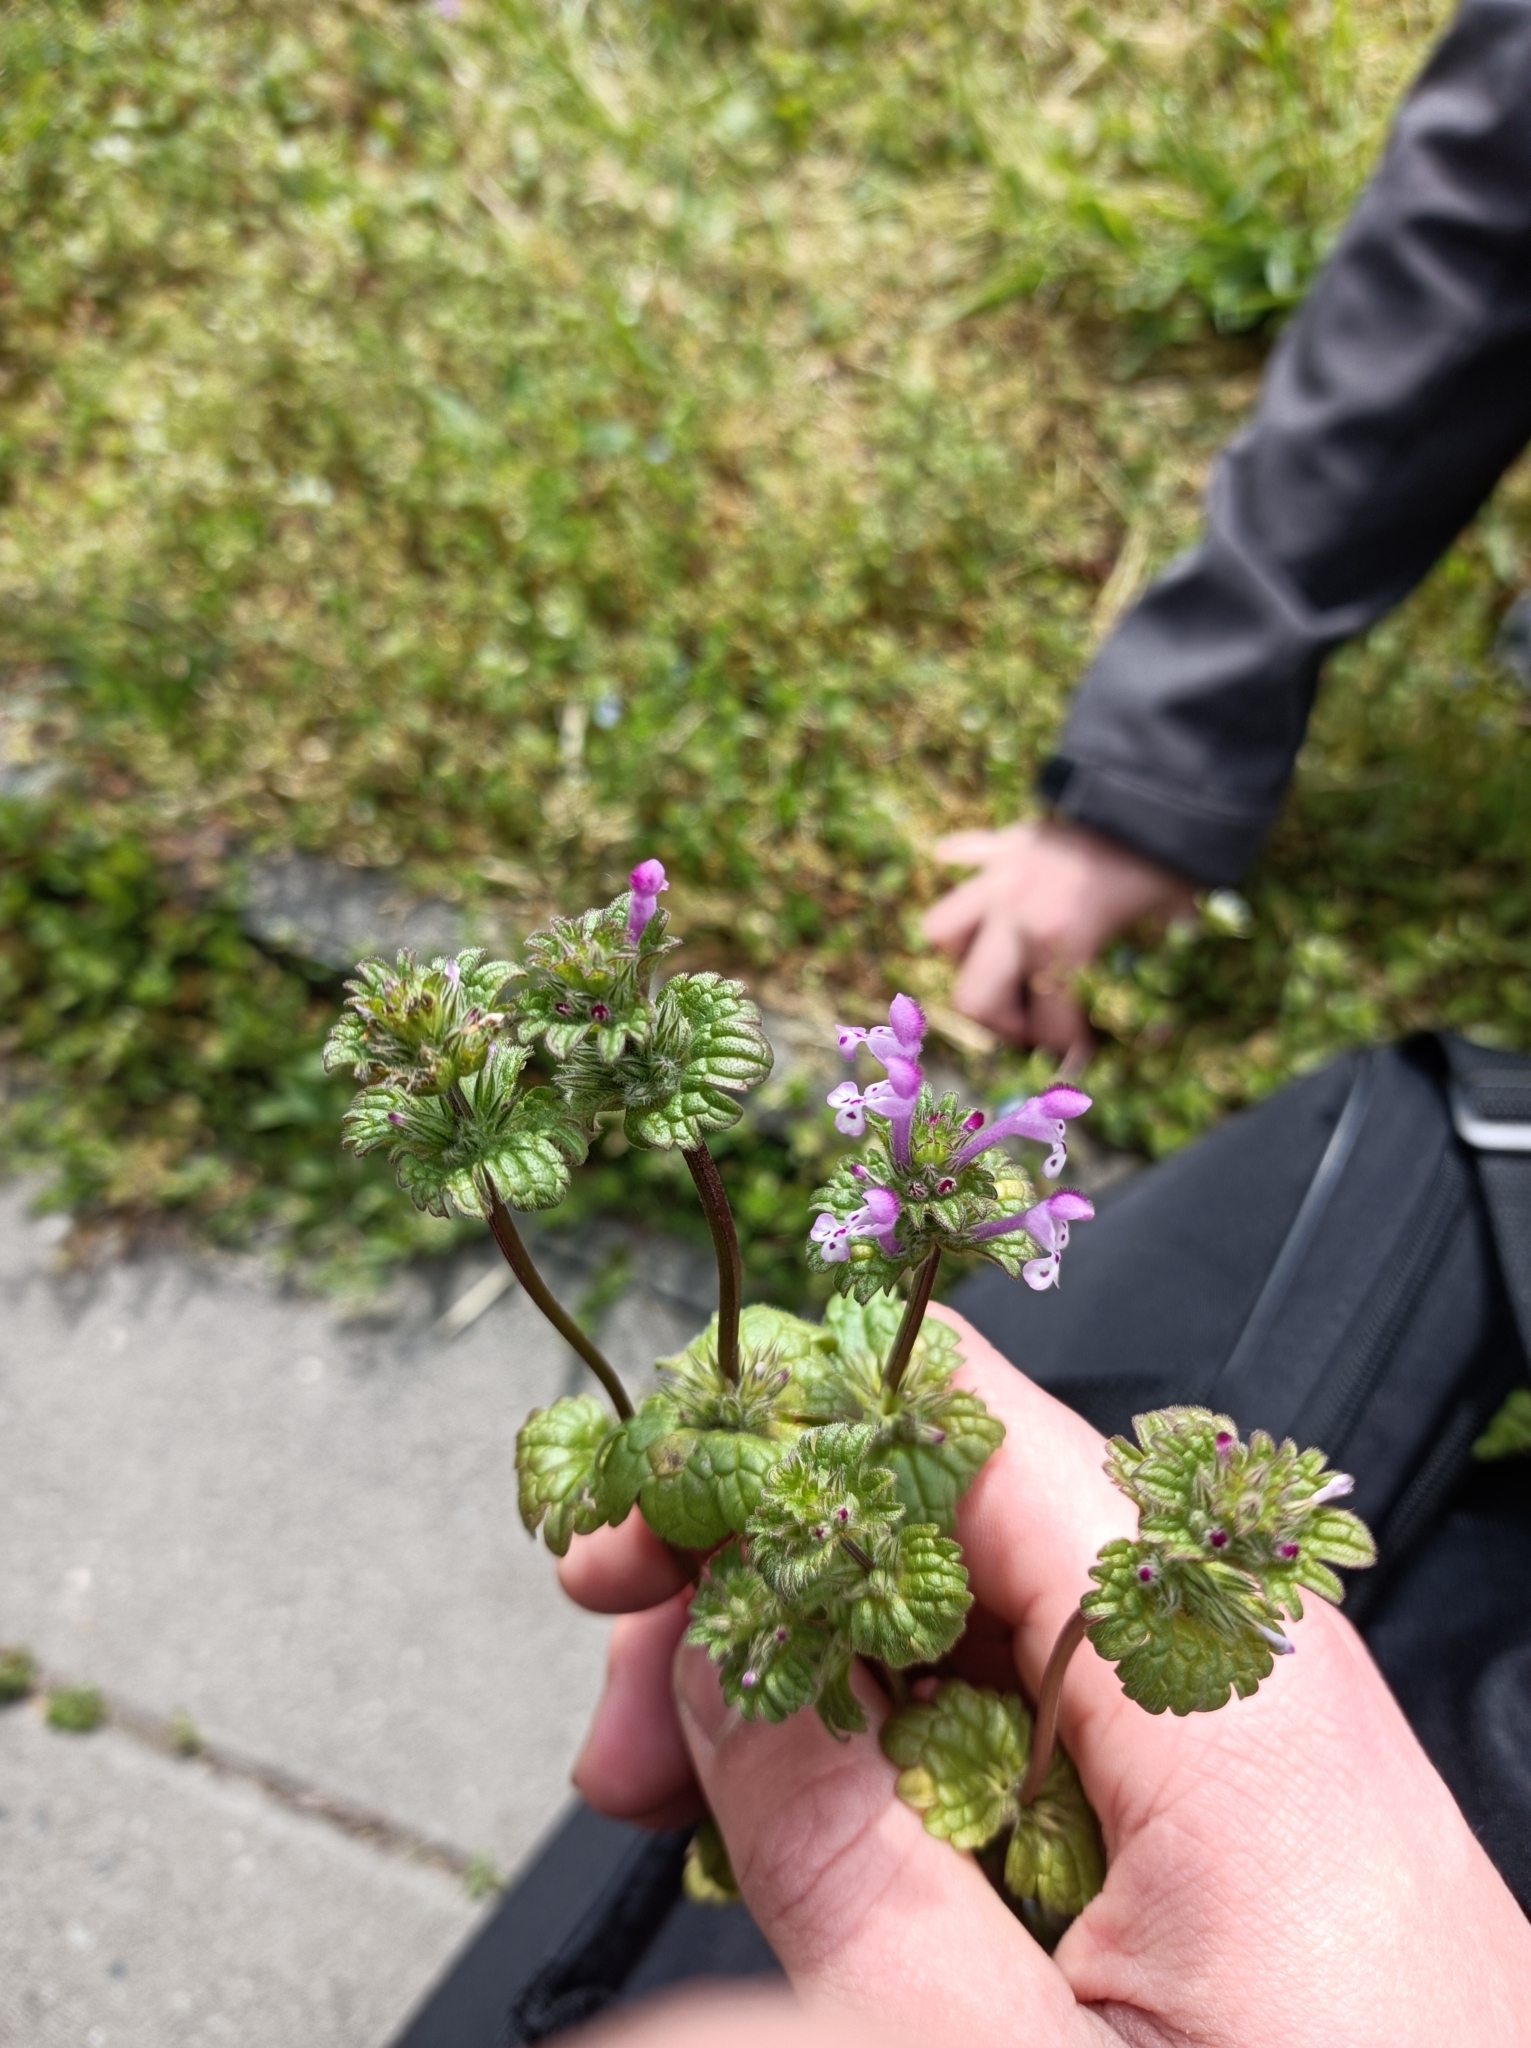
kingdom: Plantae
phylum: Tracheophyta
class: Magnoliopsida
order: Lamiales
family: Lamiaceae
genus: Lamium
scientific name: Lamium amplexicaule
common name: Henbit dead-nettle
